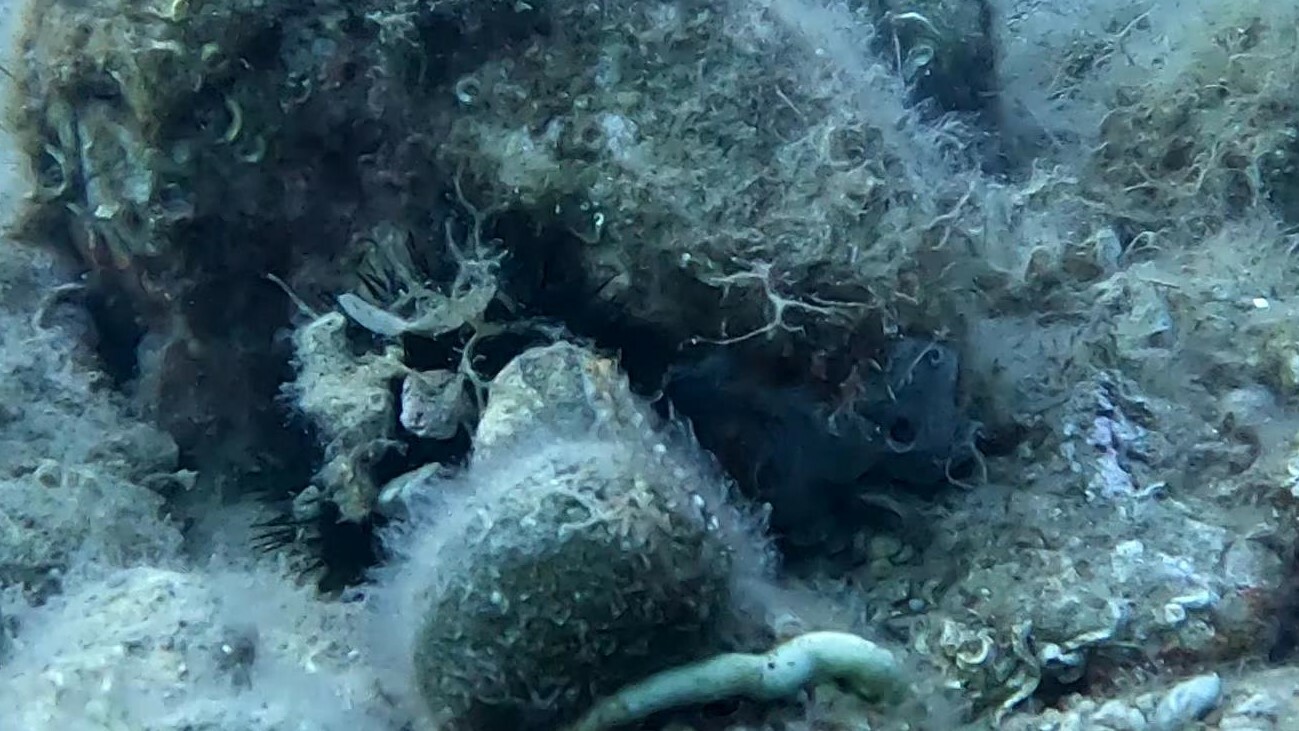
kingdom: Animalia
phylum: Chordata
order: Perciformes
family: Tripterygiidae
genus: Tripterygion
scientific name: Tripterygion delaisi
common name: Black-face blenny
